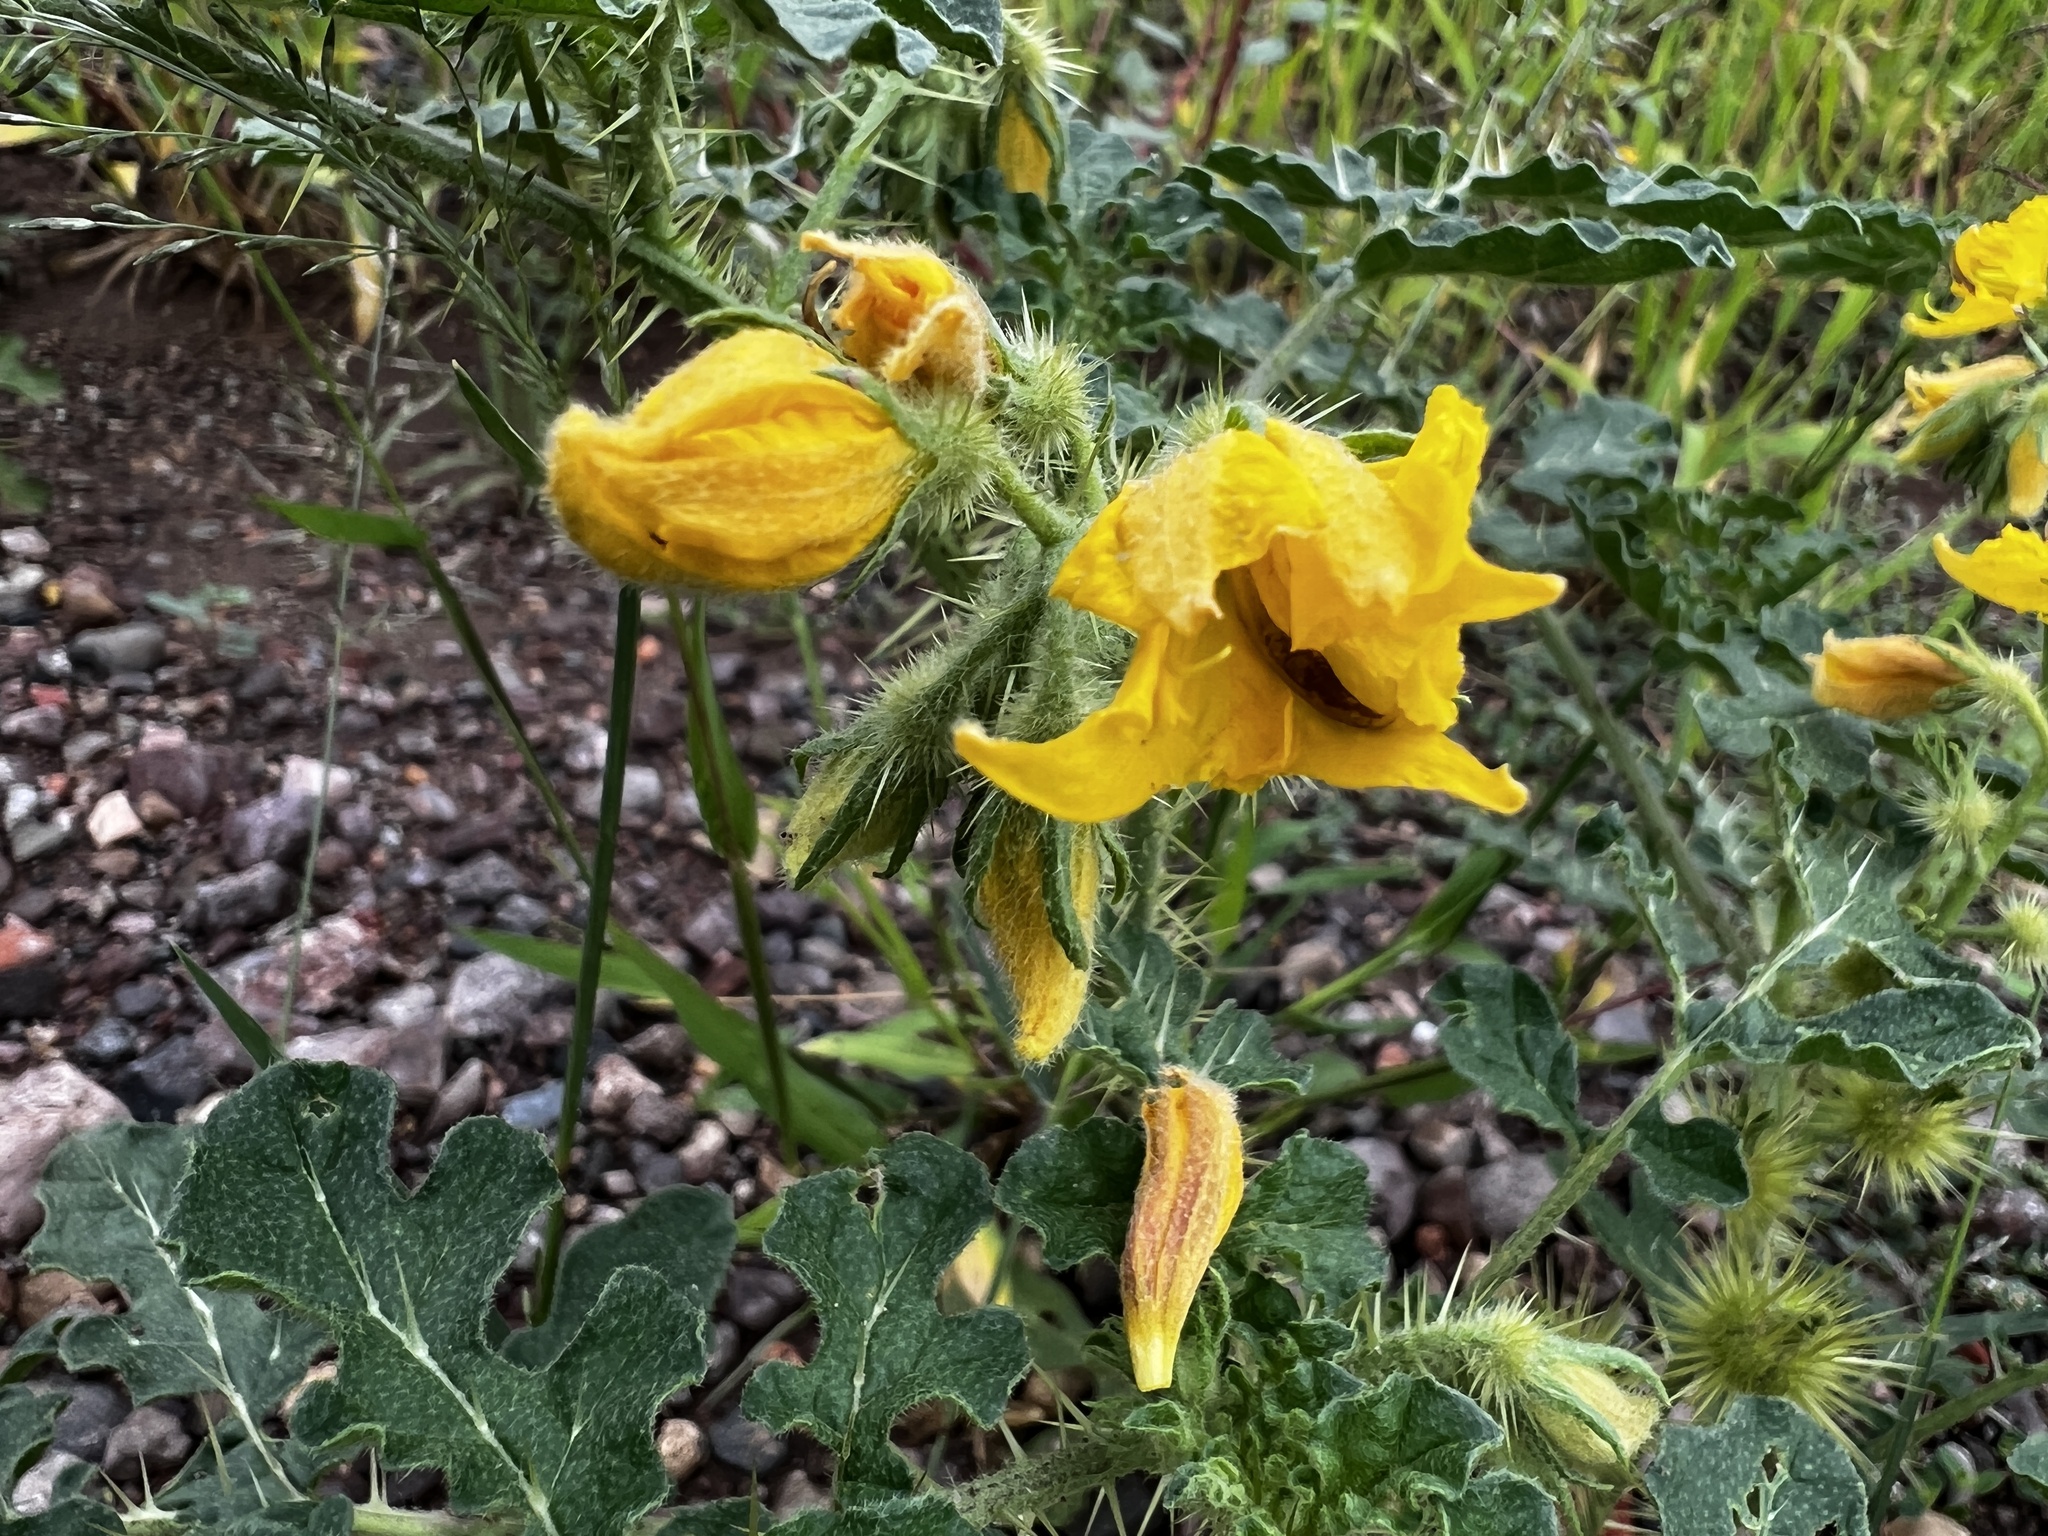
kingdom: Plantae
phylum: Tracheophyta
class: Magnoliopsida
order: Solanales
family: Solanaceae
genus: Solanum
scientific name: Solanum angustifolium
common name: Buffalobur nightshade
